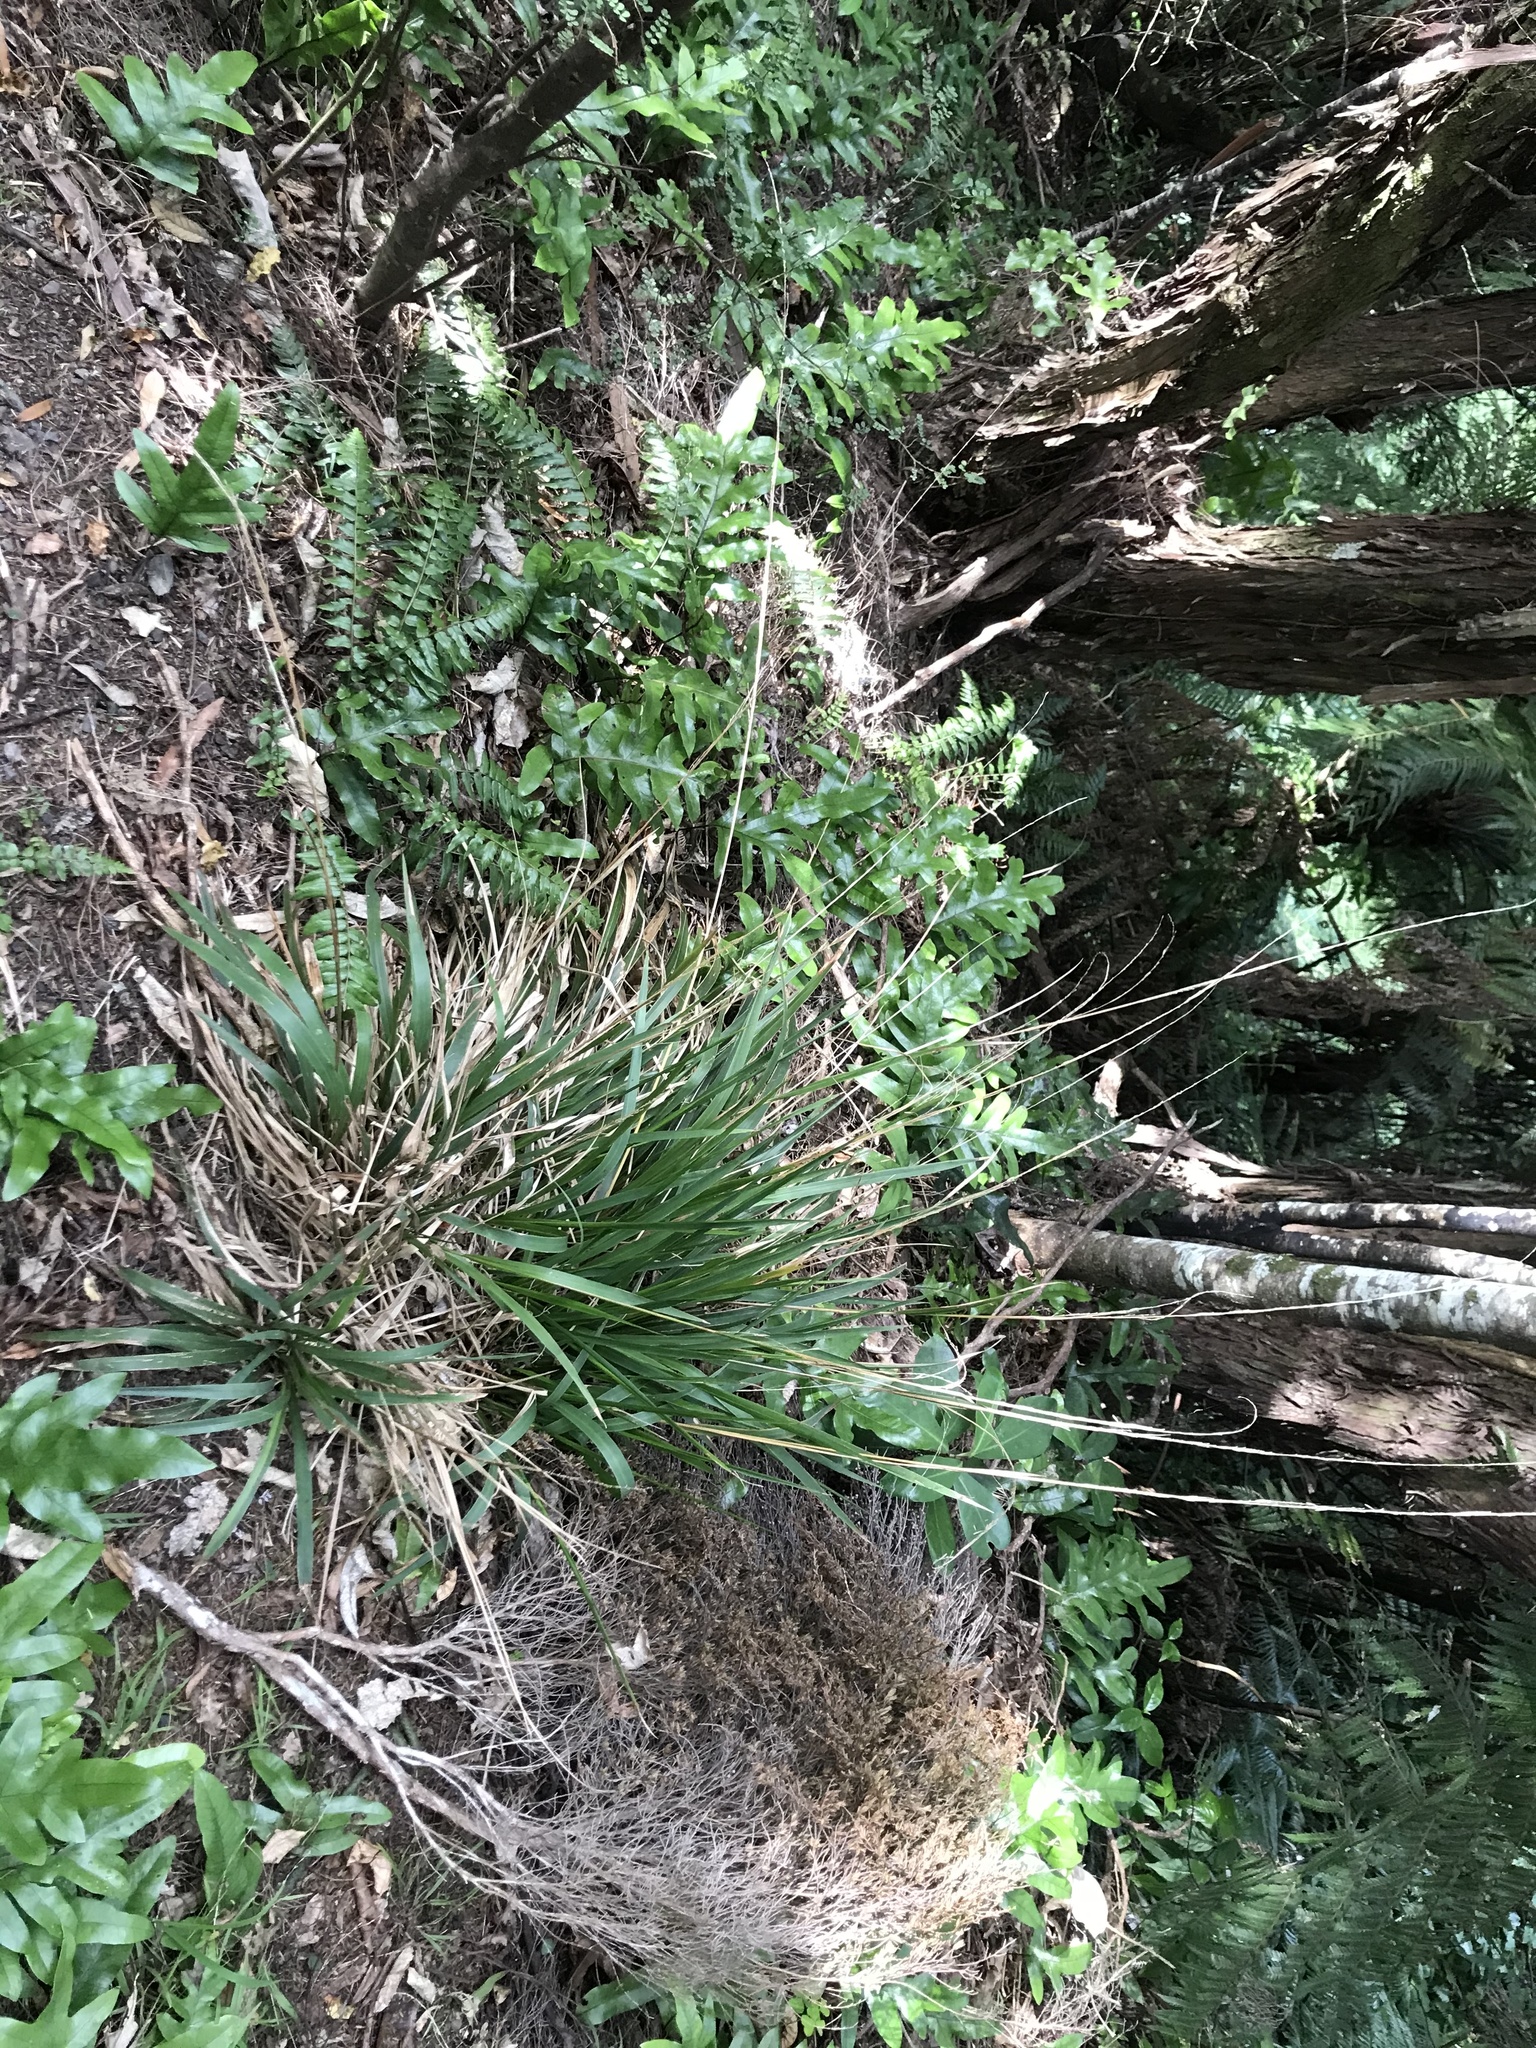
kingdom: Plantae
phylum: Tracheophyta
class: Liliopsida
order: Poales
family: Poaceae
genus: Ehrharta
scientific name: Ehrharta diplax
